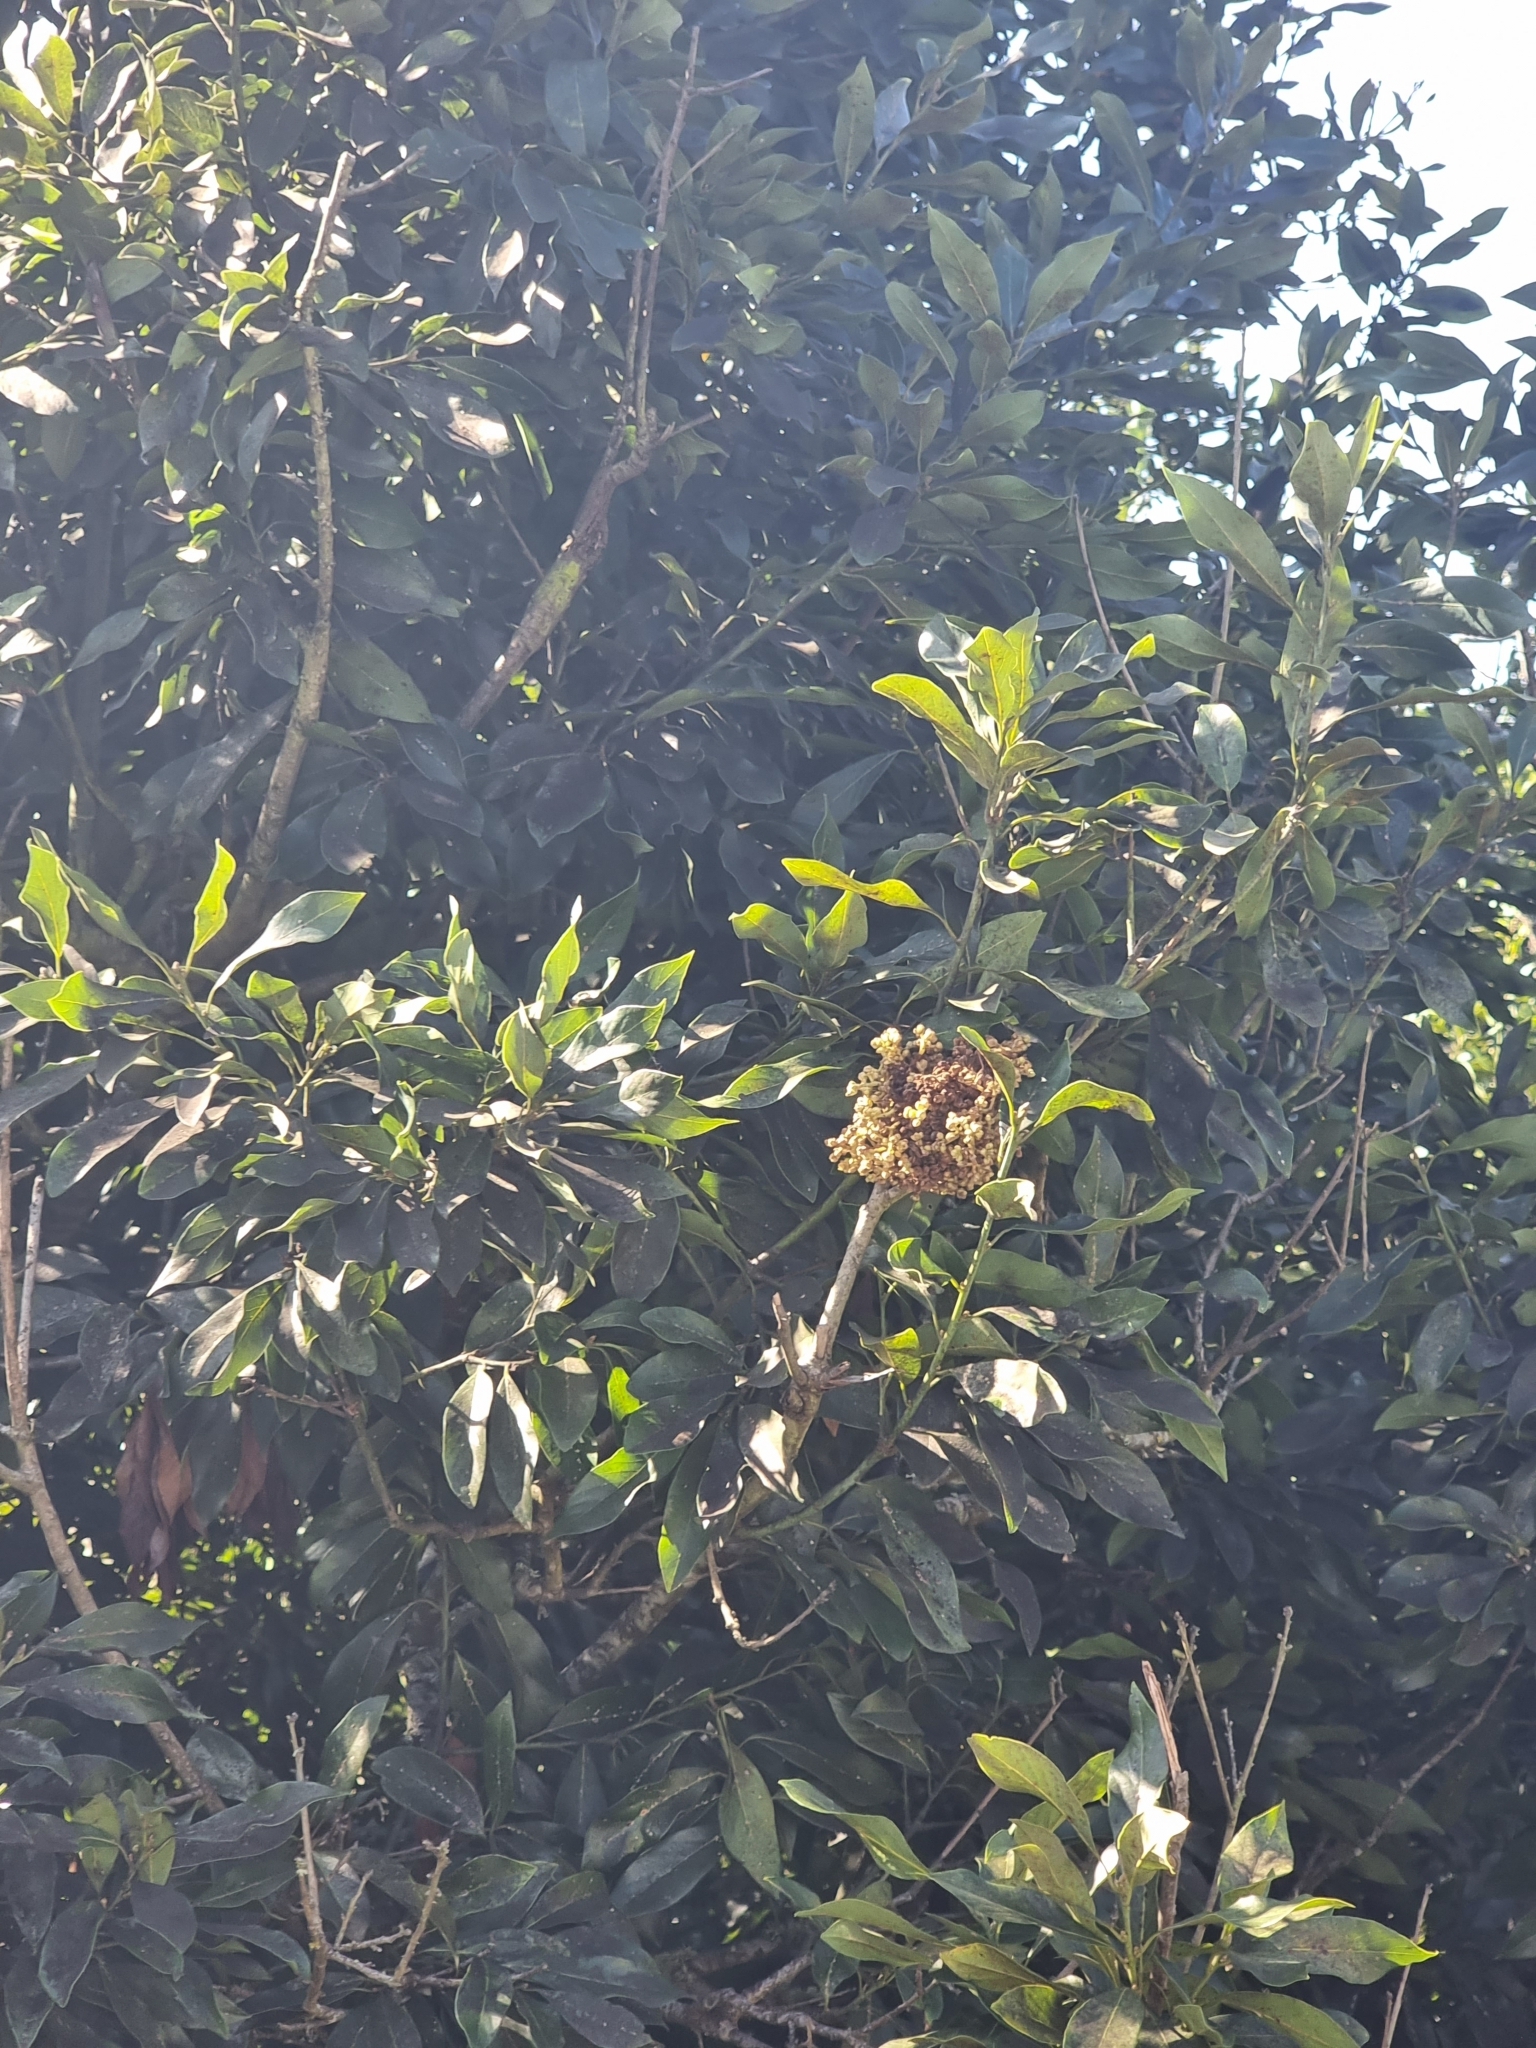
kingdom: Plantae
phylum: Tracheophyta
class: Magnoliopsida
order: Laurales
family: Lauraceae
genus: Laurus
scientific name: Laurus novocanariensis
